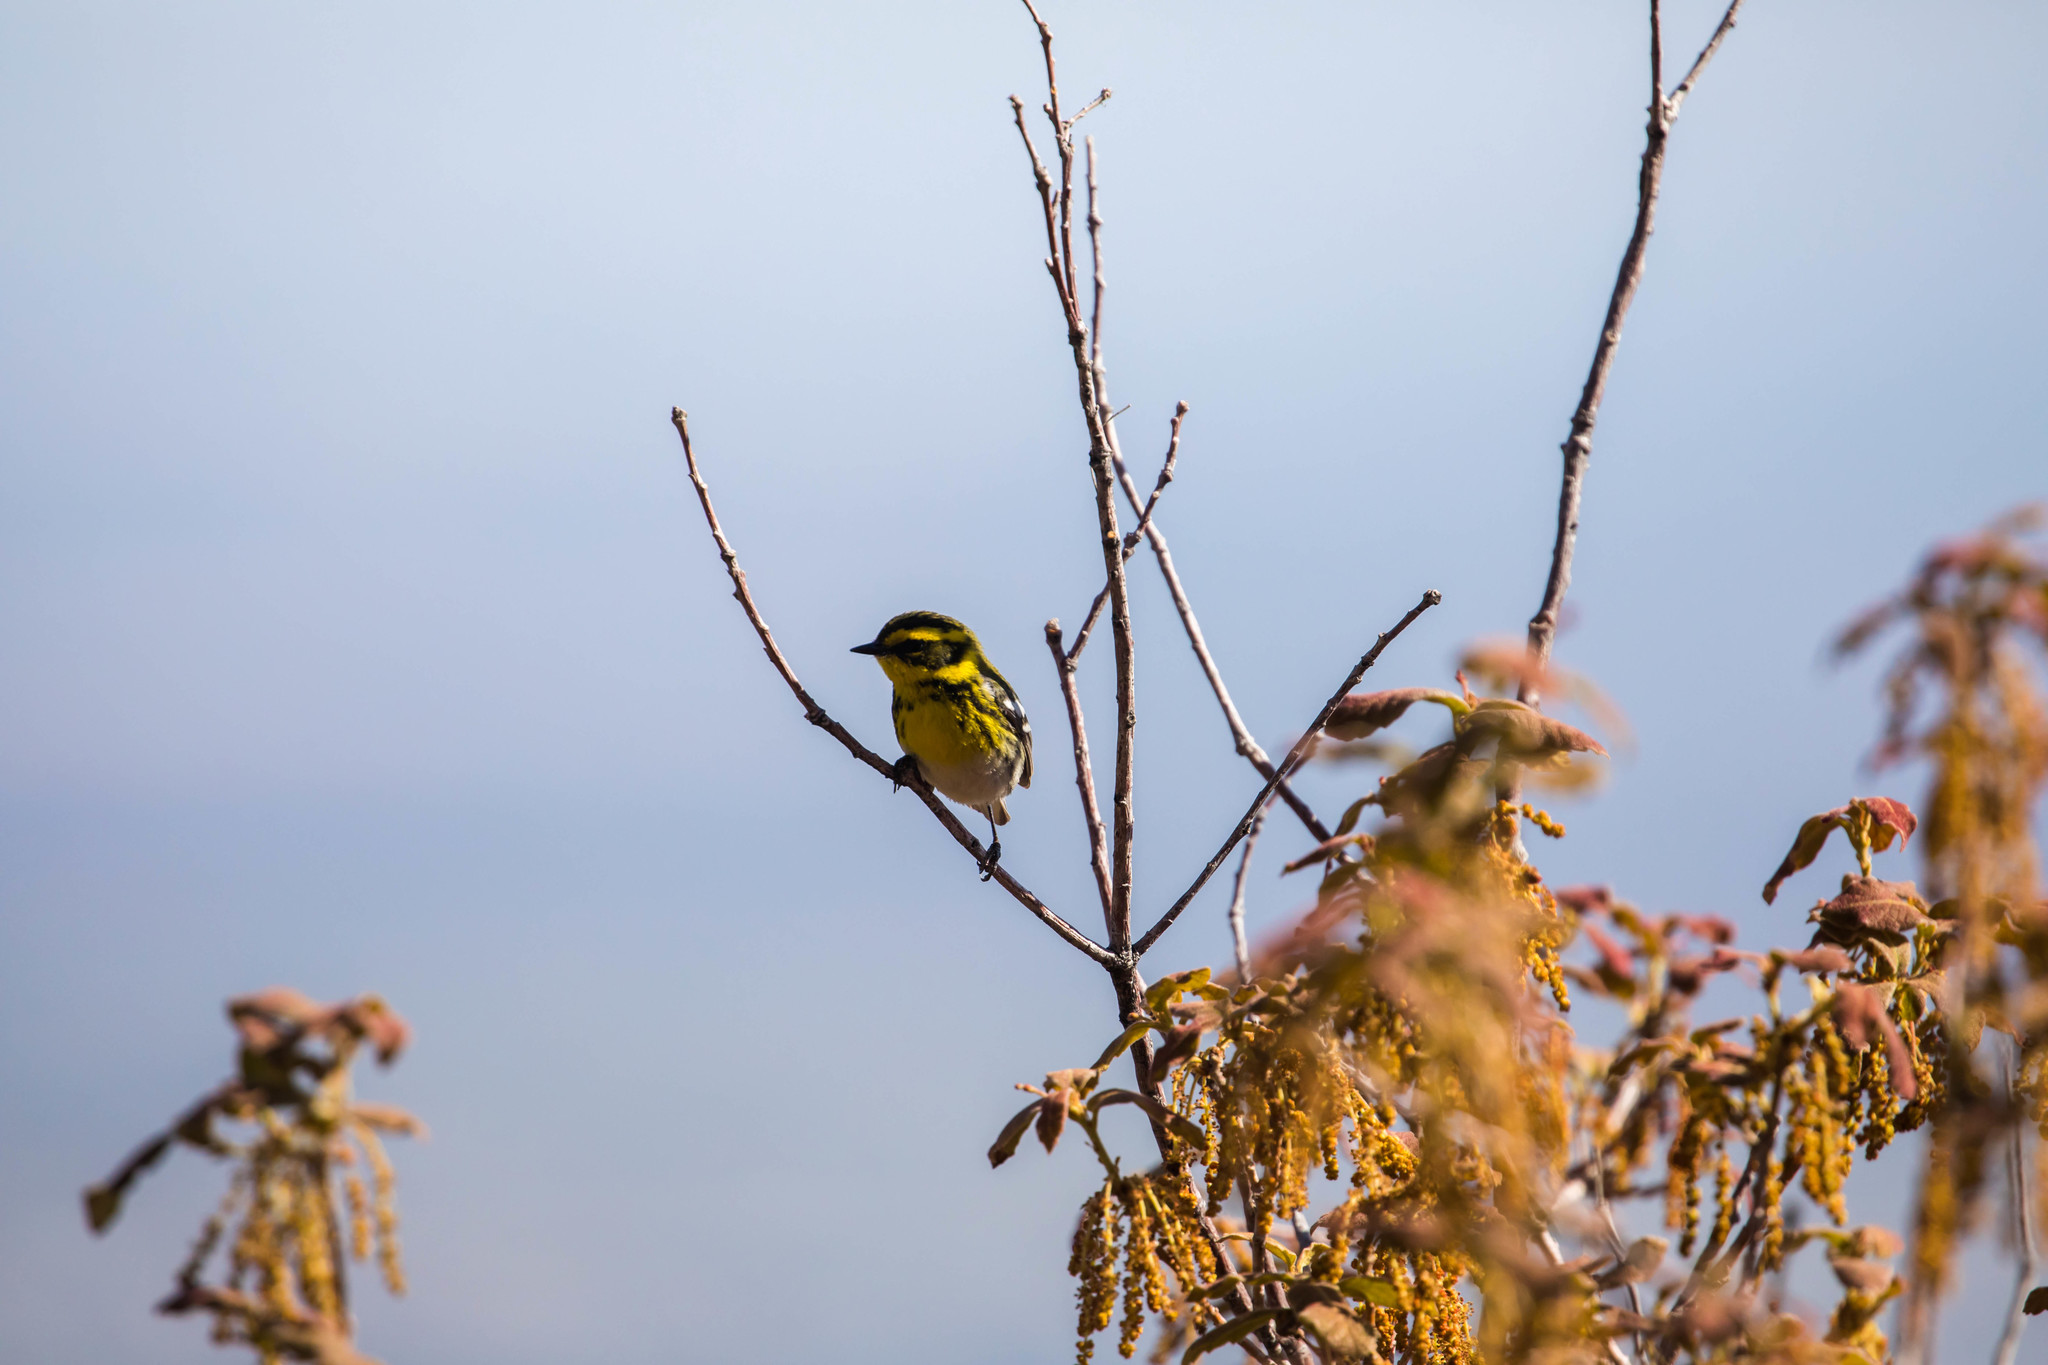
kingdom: Animalia
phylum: Chordata
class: Aves
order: Passeriformes
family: Parulidae
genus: Setophaga
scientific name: Setophaga townsendi
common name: Townsend's warbler
